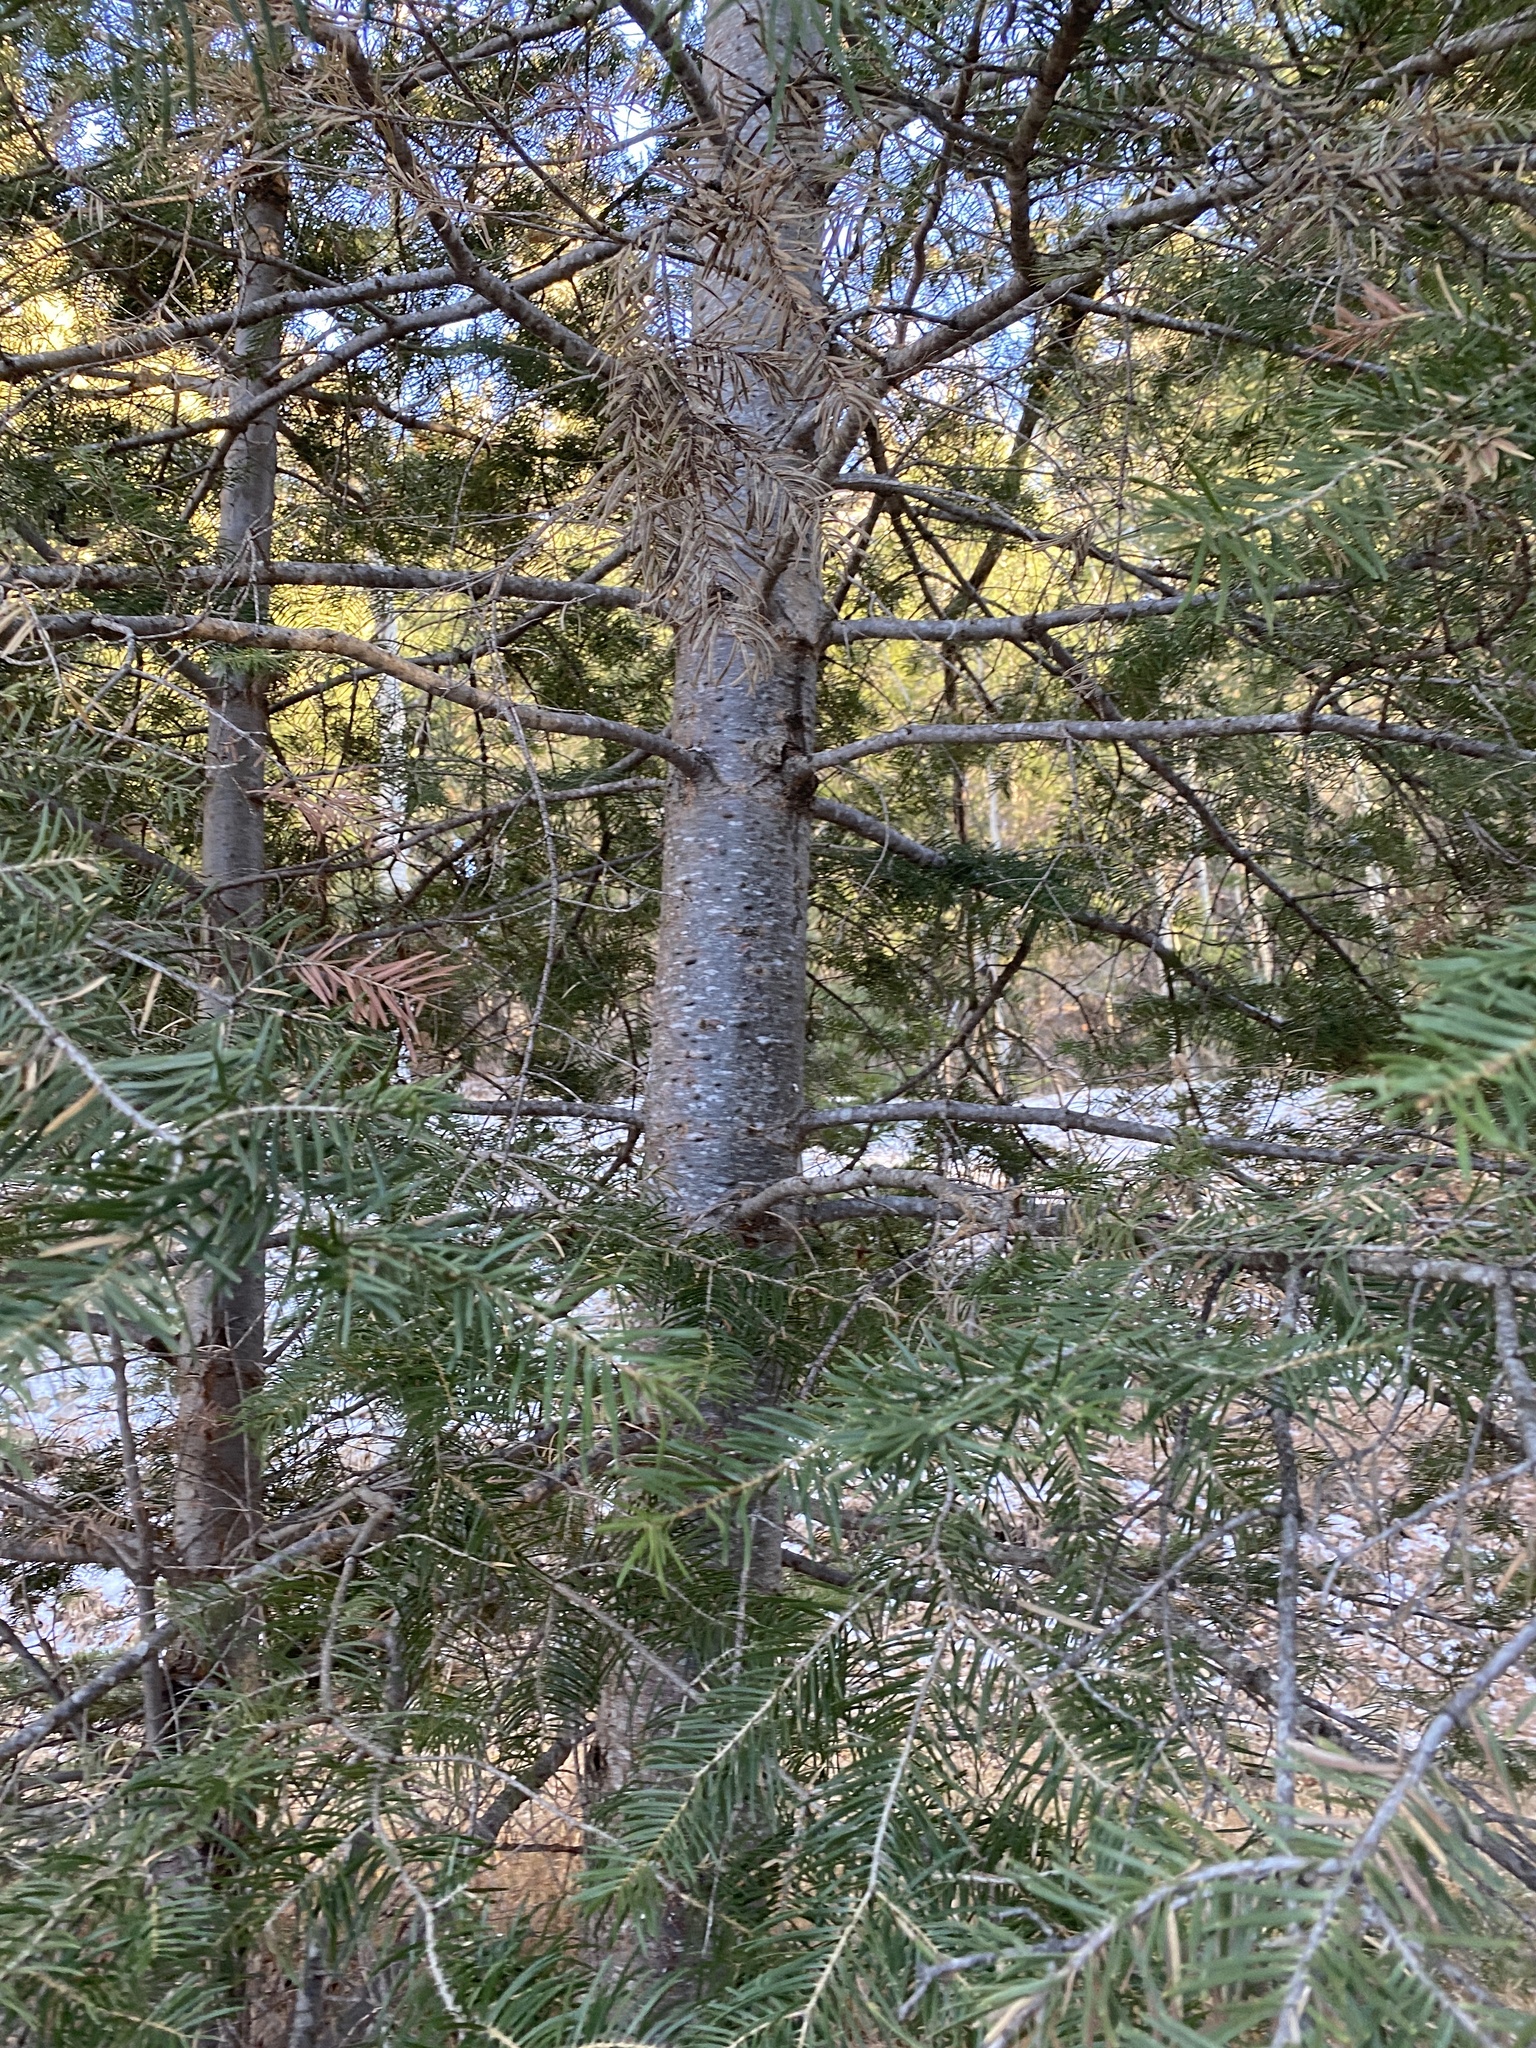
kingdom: Plantae
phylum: Tracheophyta
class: Pinopsida
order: Pinales
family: Pinaceae
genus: Abies
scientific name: Abies concolor
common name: Colorado fir
